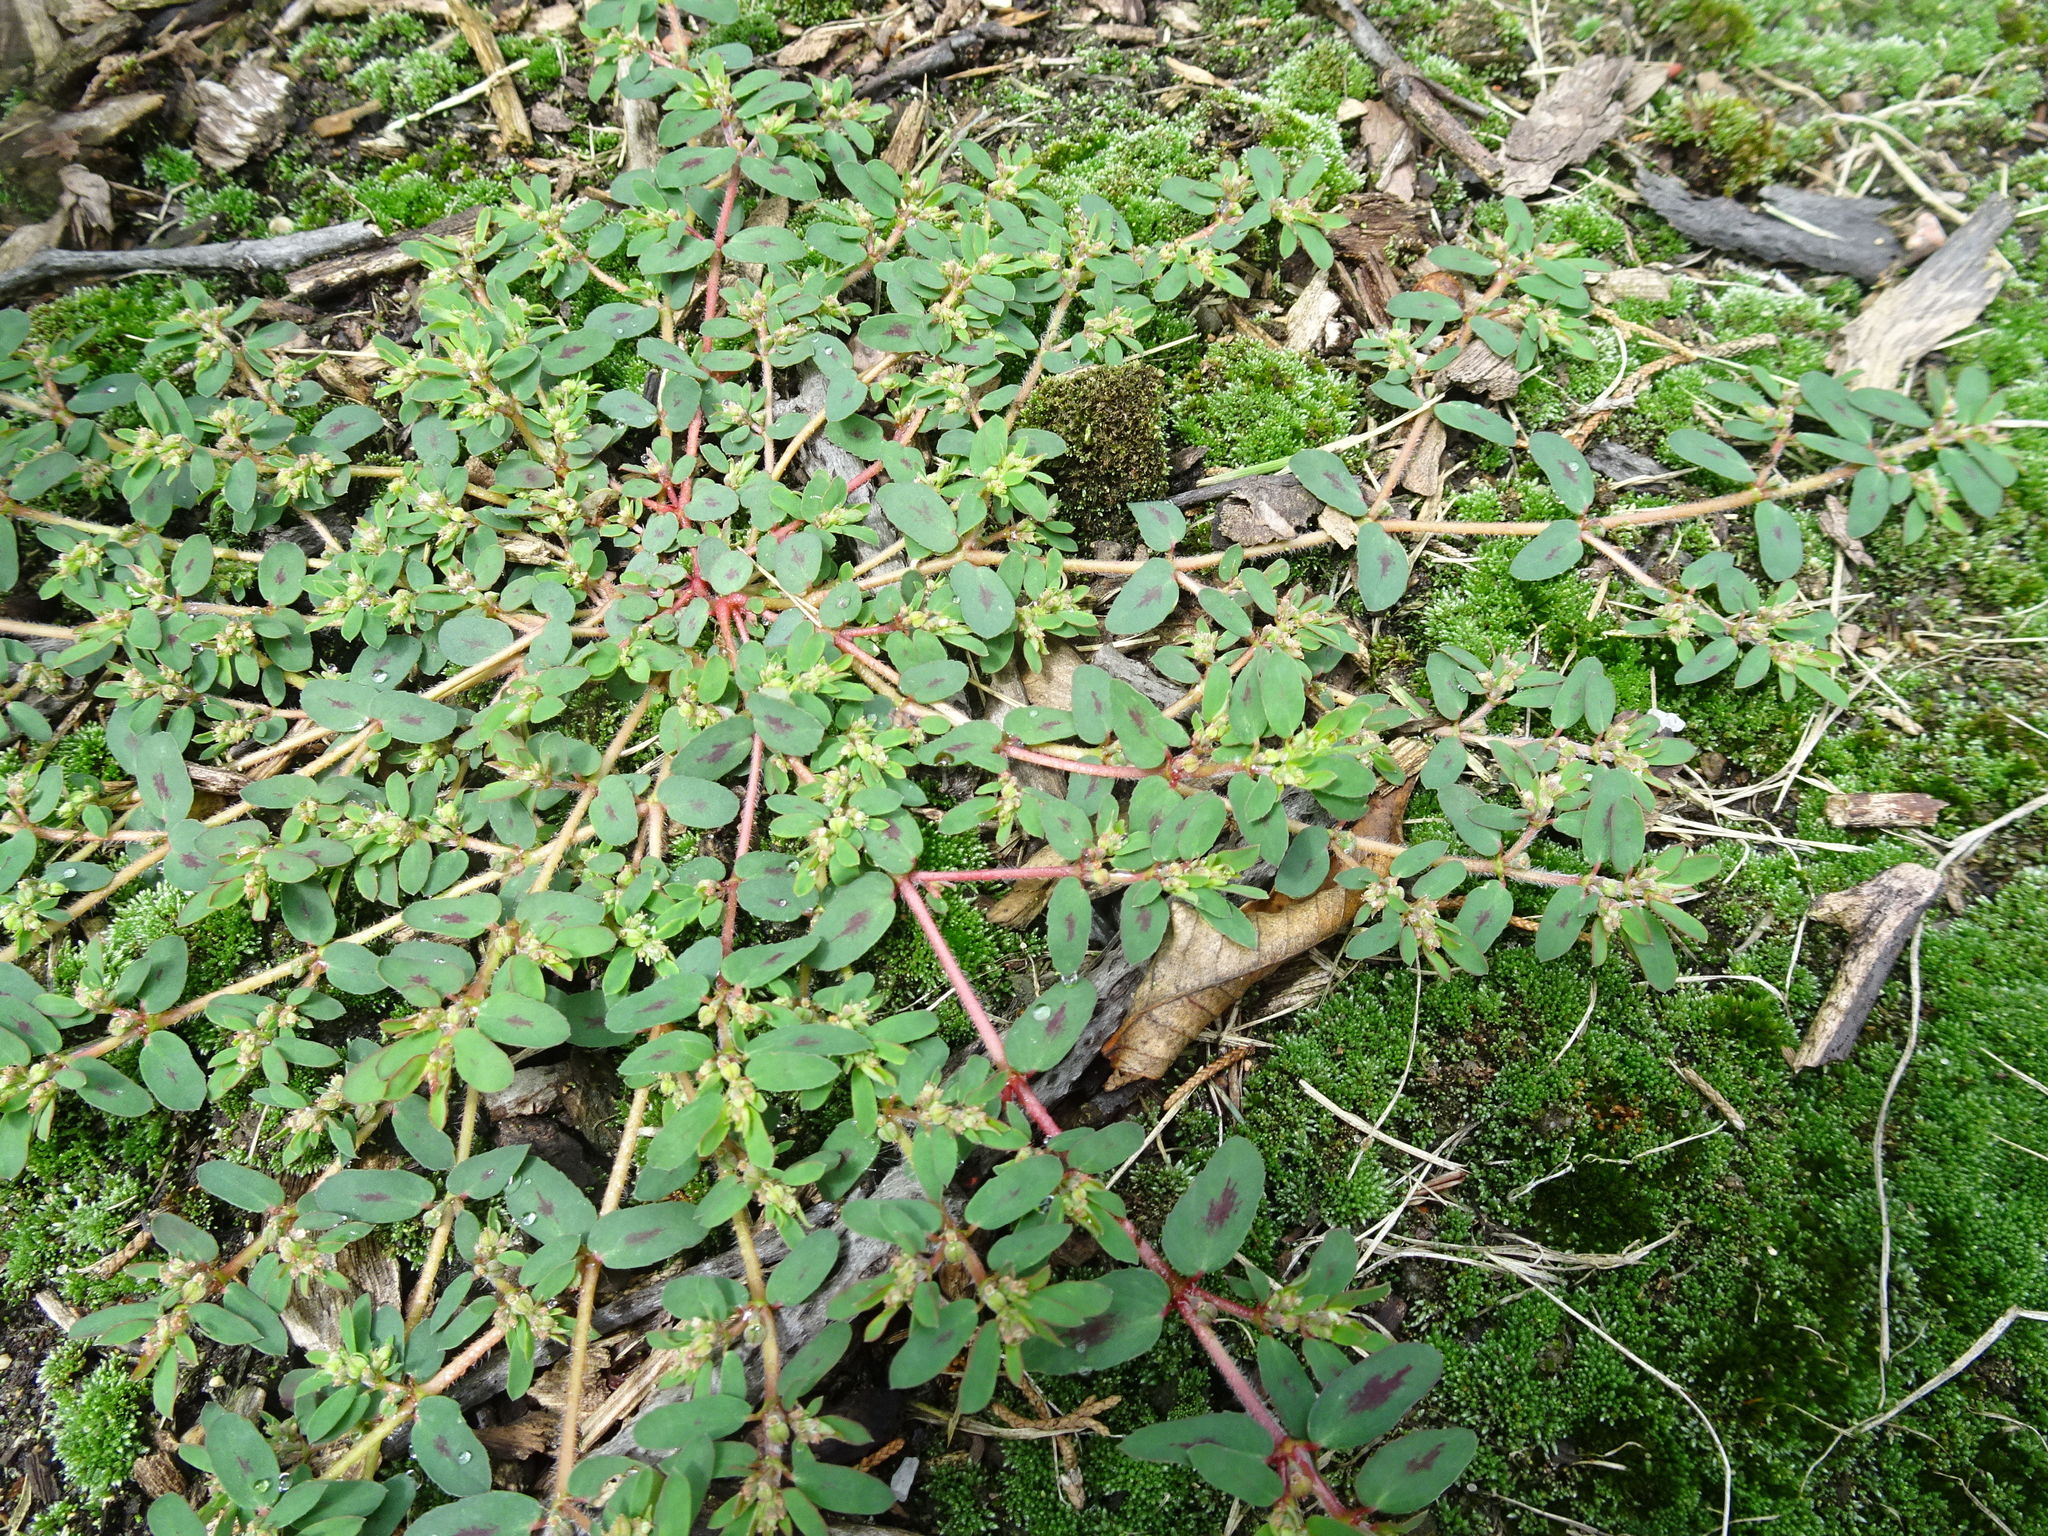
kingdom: Plantae
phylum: Tracheophyta
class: Magnoliopsida
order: Malpighiales
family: Euphorbiaceae
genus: Euphorbia
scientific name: Euphorbia maculata
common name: Spotted spurge
